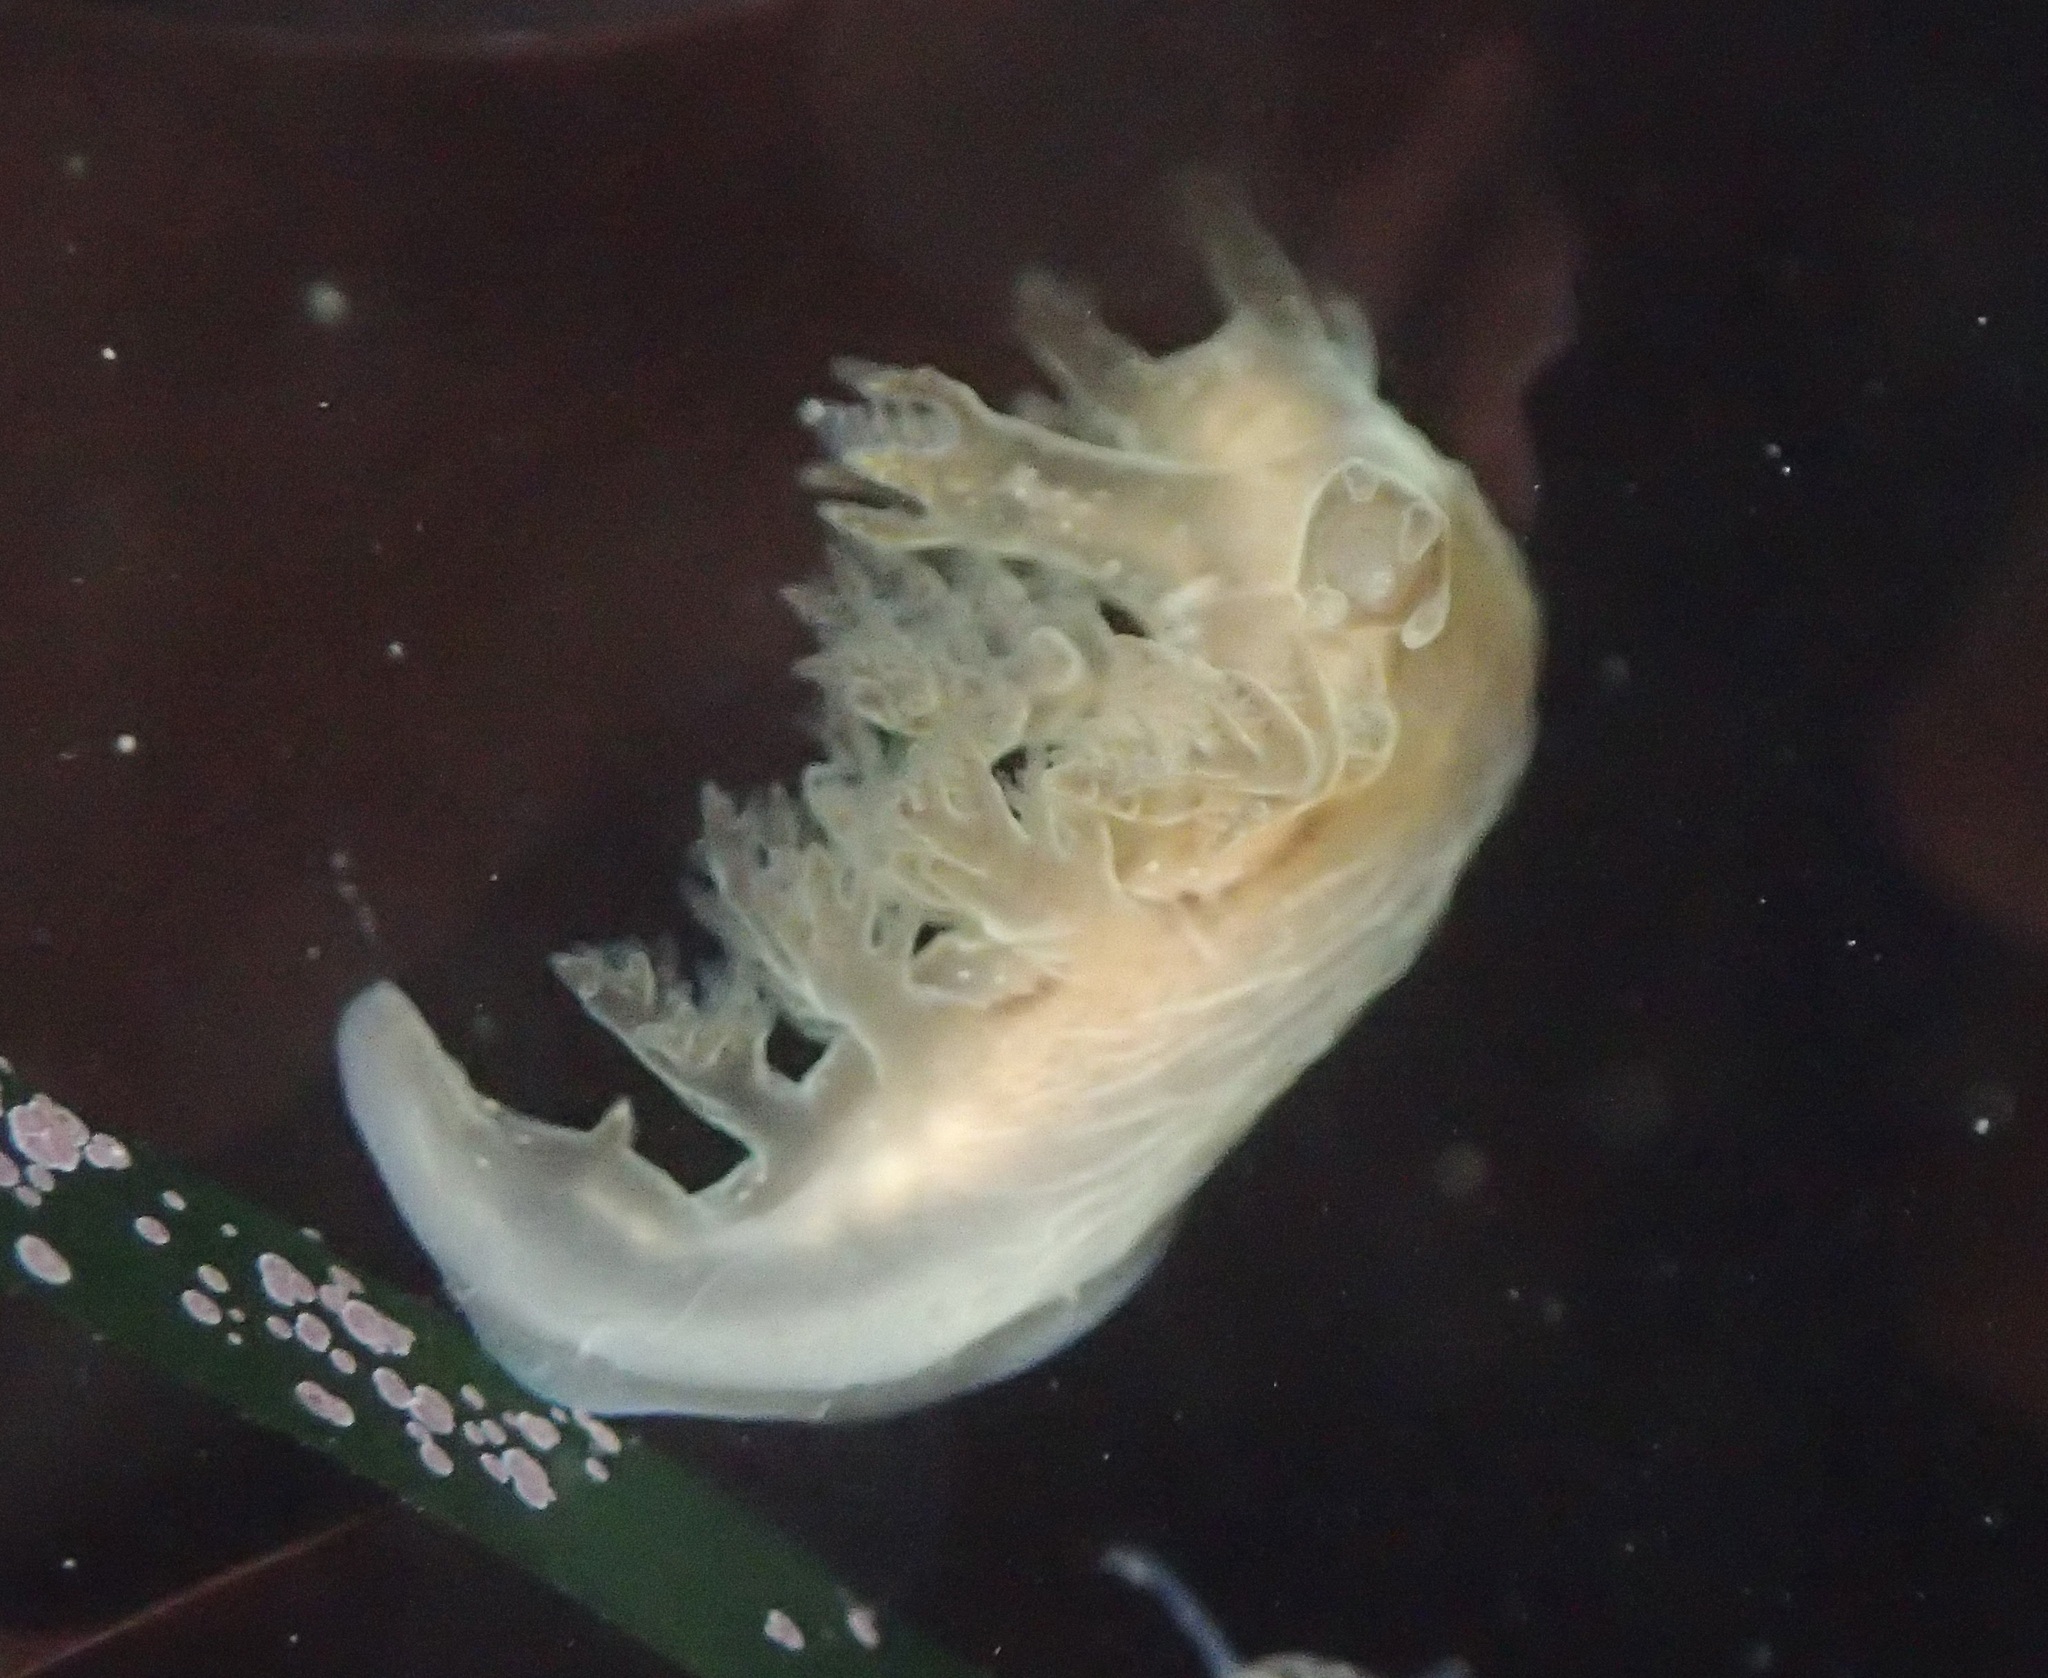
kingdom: Animalia
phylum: Mollusca
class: Gastropoda
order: Nudibranchia
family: Dendronotidae
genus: Dendronotus
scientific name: Dendronotus subramosus
